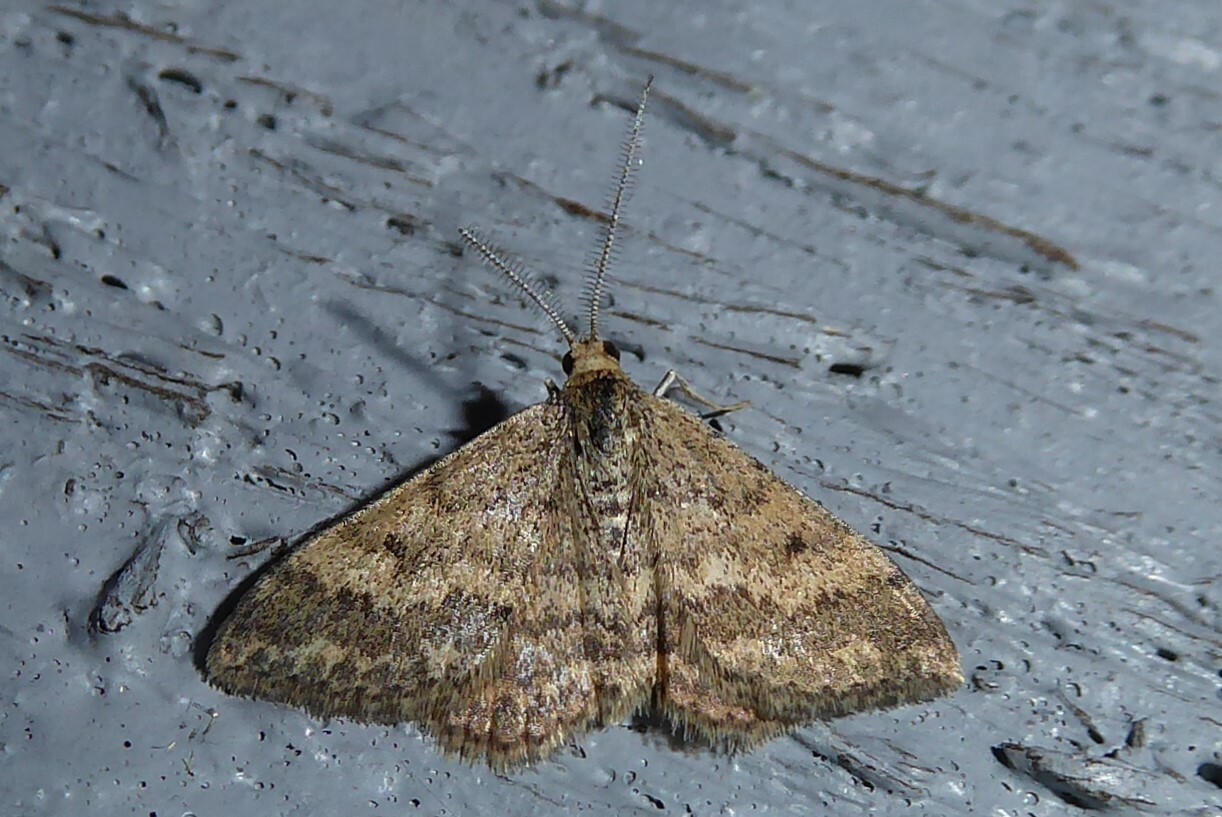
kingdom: Animalia
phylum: Arthropoda
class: Insecta
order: Lepidoptera
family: Geometridae
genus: Scopula
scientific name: Scopula rubraria
